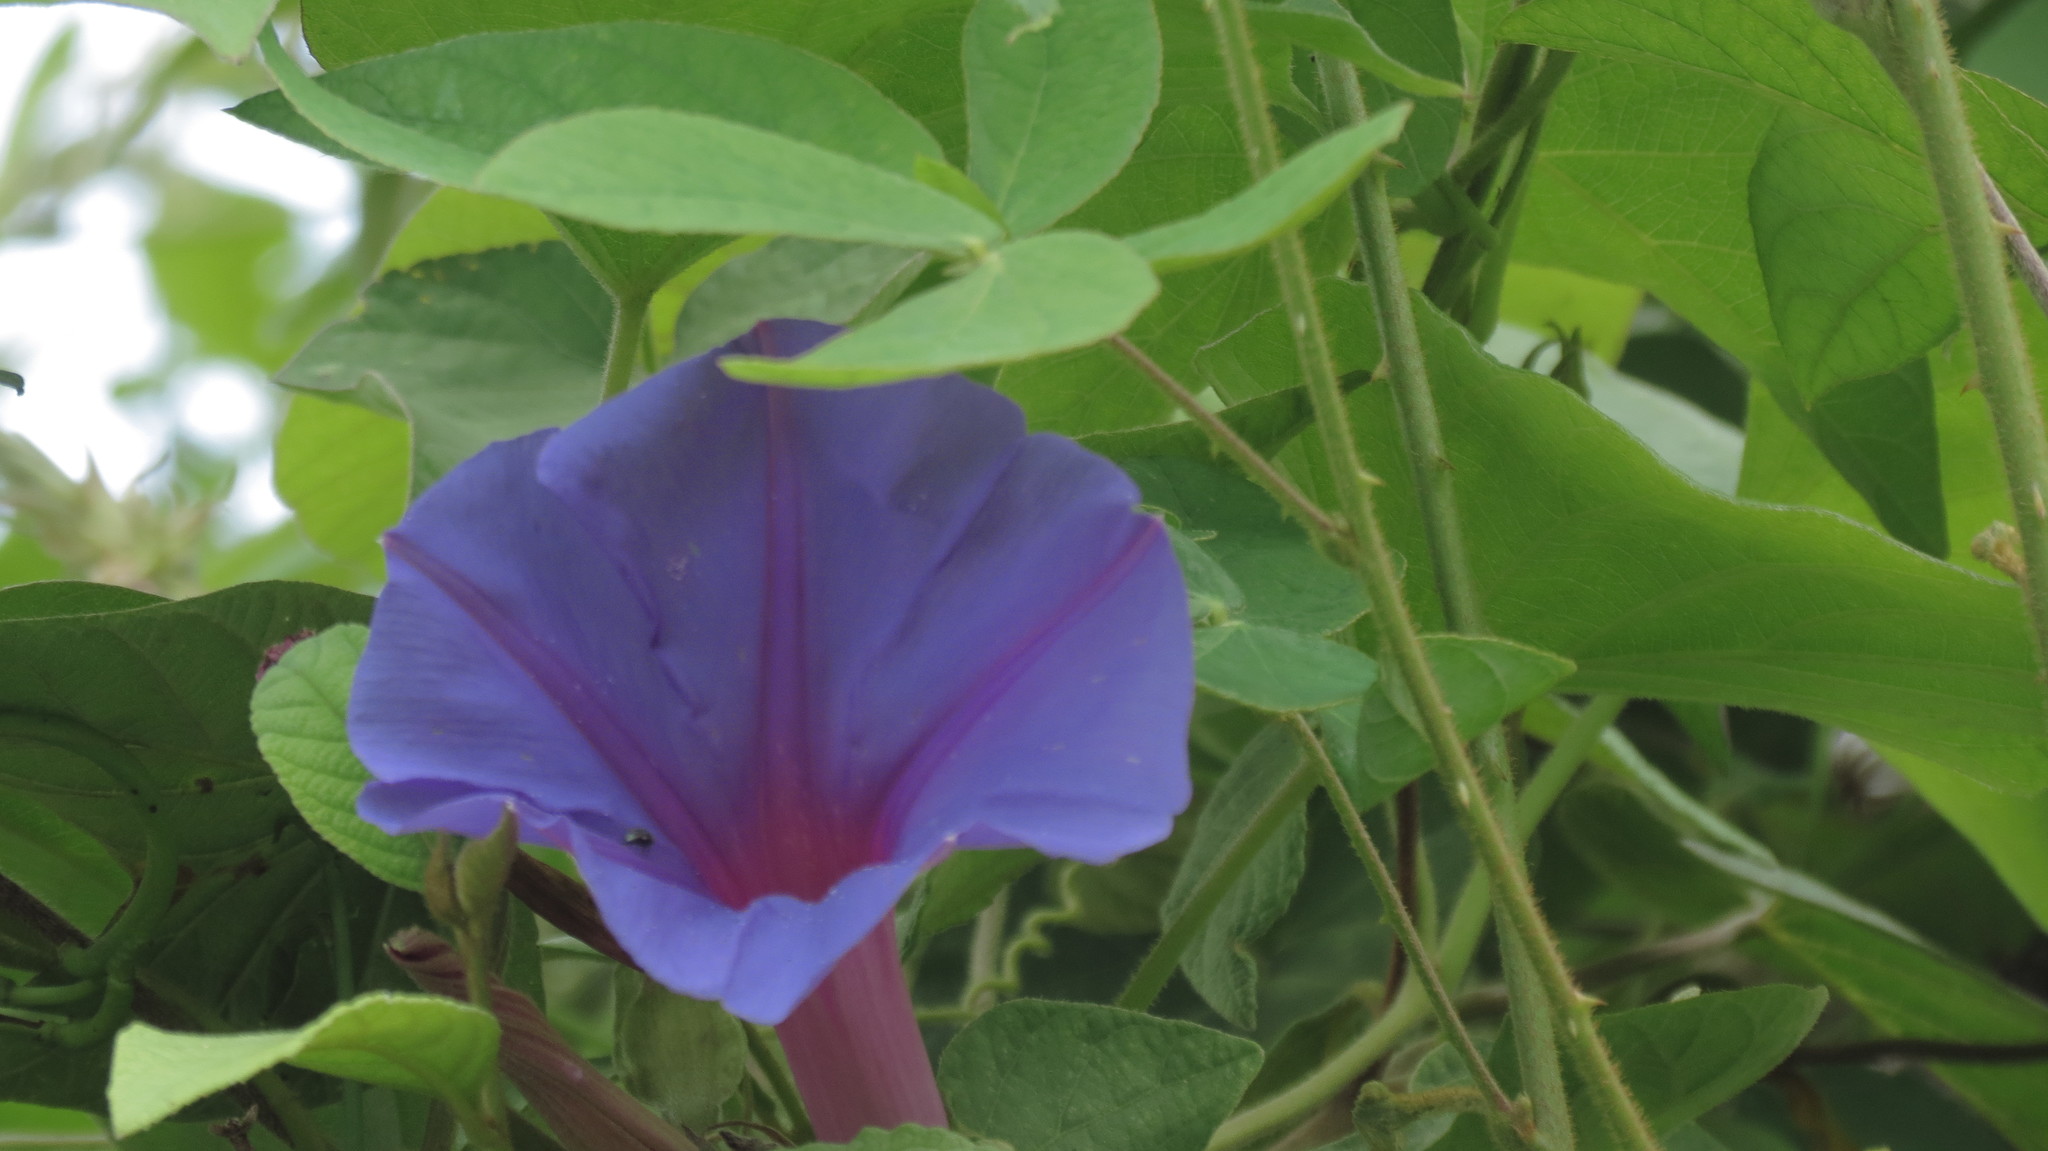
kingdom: Plantae
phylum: Tracheophyta
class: Magnoliopsida
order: Solanales
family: Convolvulaceae
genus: Ipomoea
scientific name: Ipomoea indica
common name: Blue dawnflower
